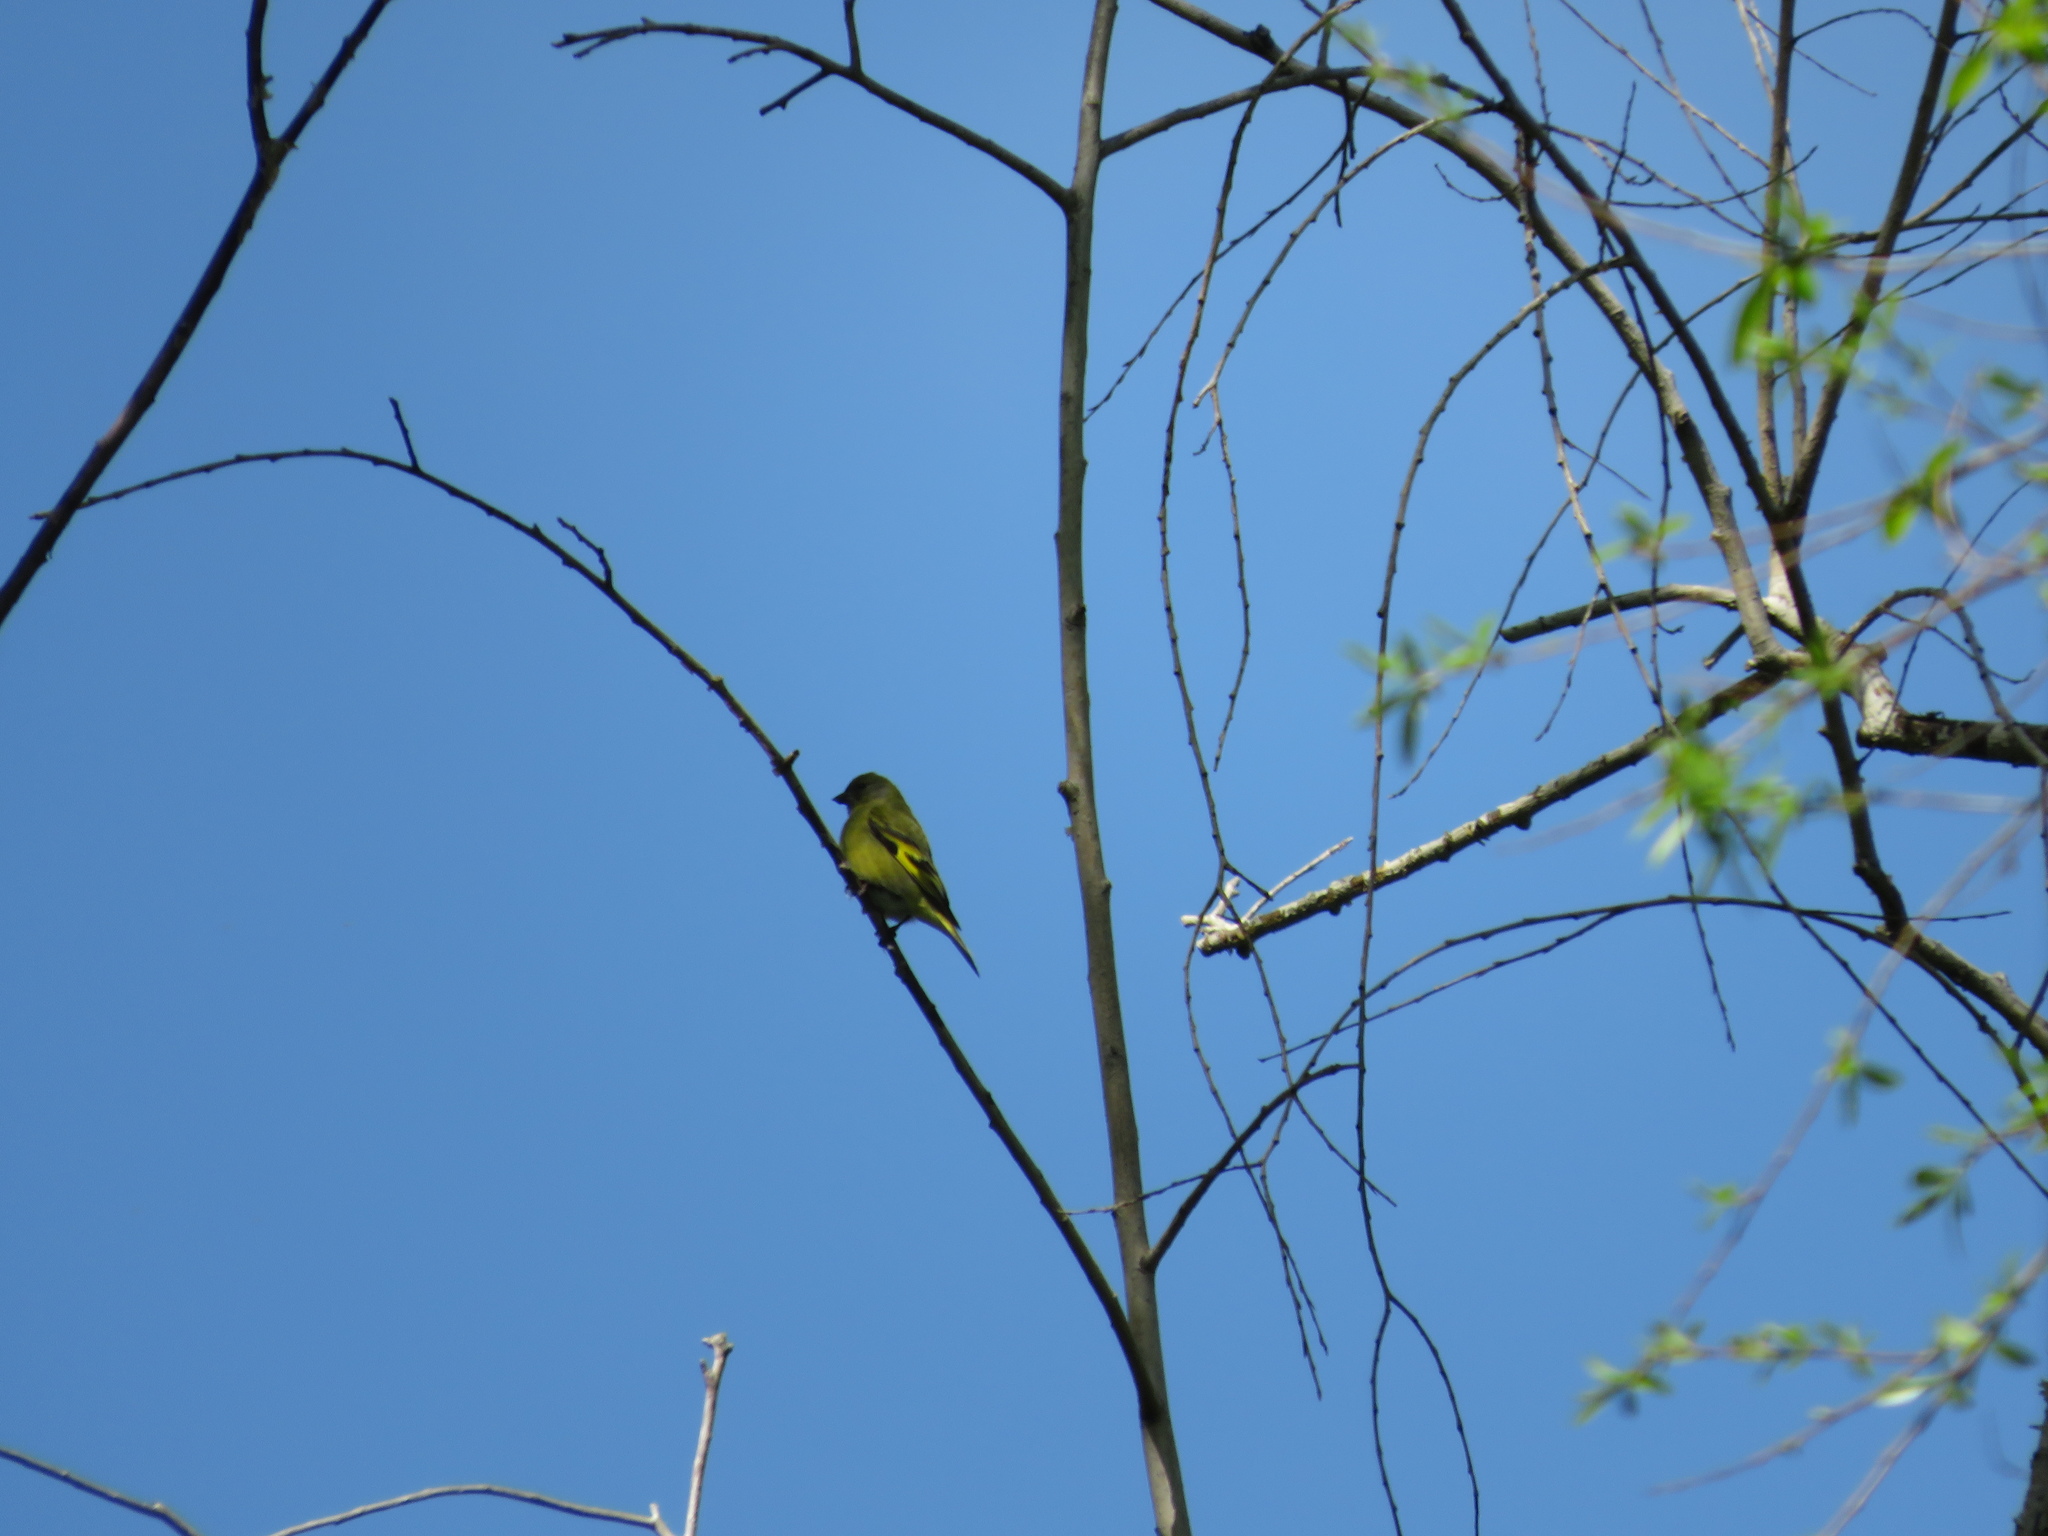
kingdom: Animalia
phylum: Chordata
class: Aves
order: Passeriformes
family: Fringillidae
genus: Spinus
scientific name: Spinus magellanicus
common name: Hooded siskin
